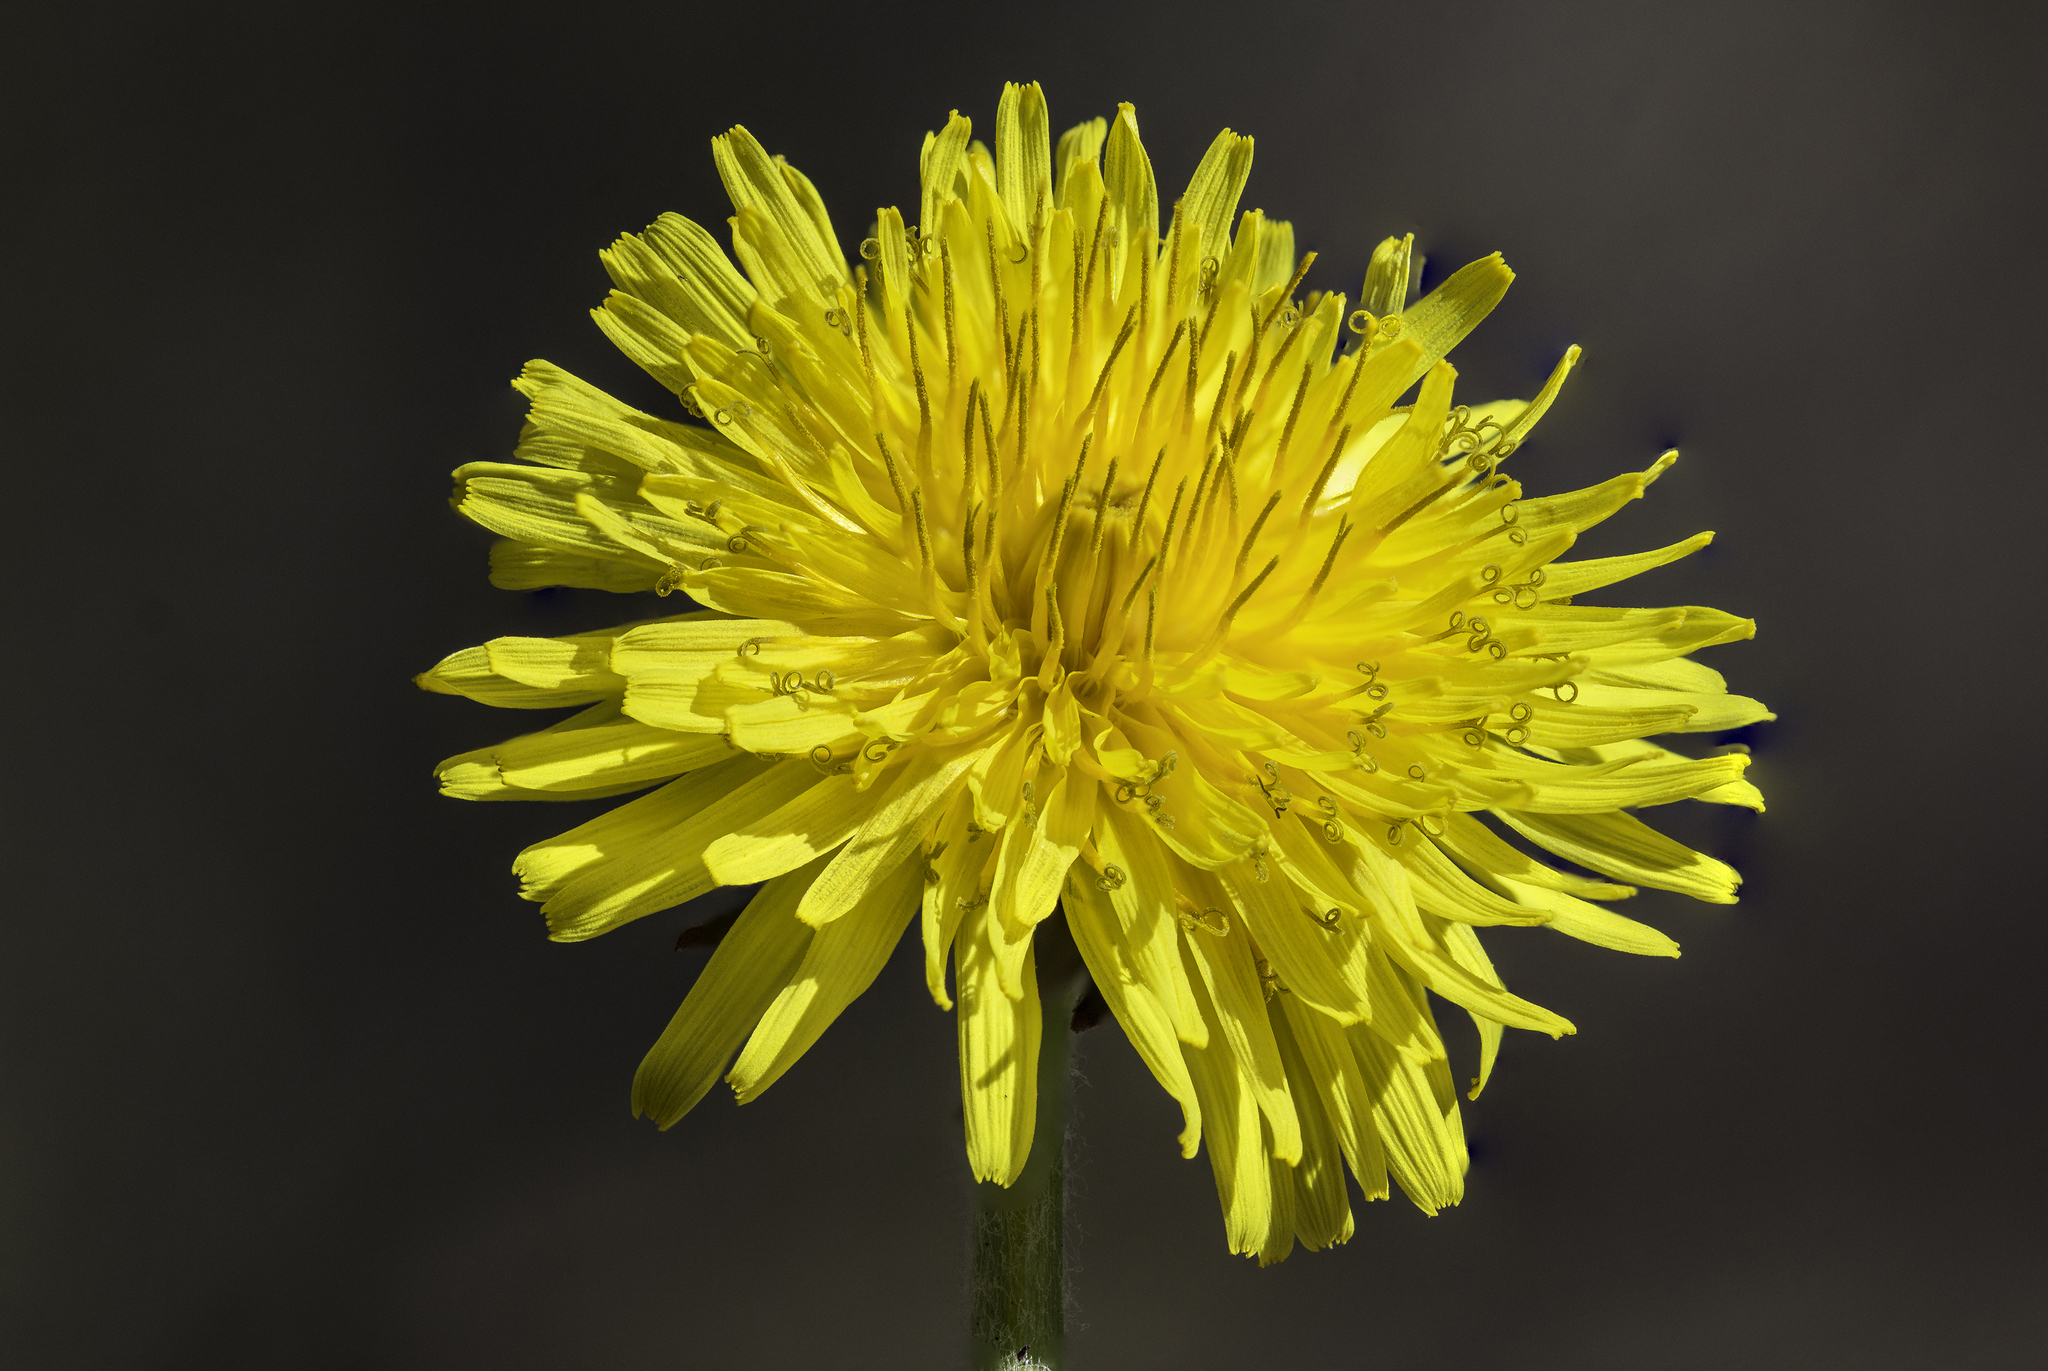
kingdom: Plantae
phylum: Tracheophyta
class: Magnoliopsida
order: Asterales
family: Asteraceae
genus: Taraxacum
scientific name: Taraxacum officinale
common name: Common dandelion
